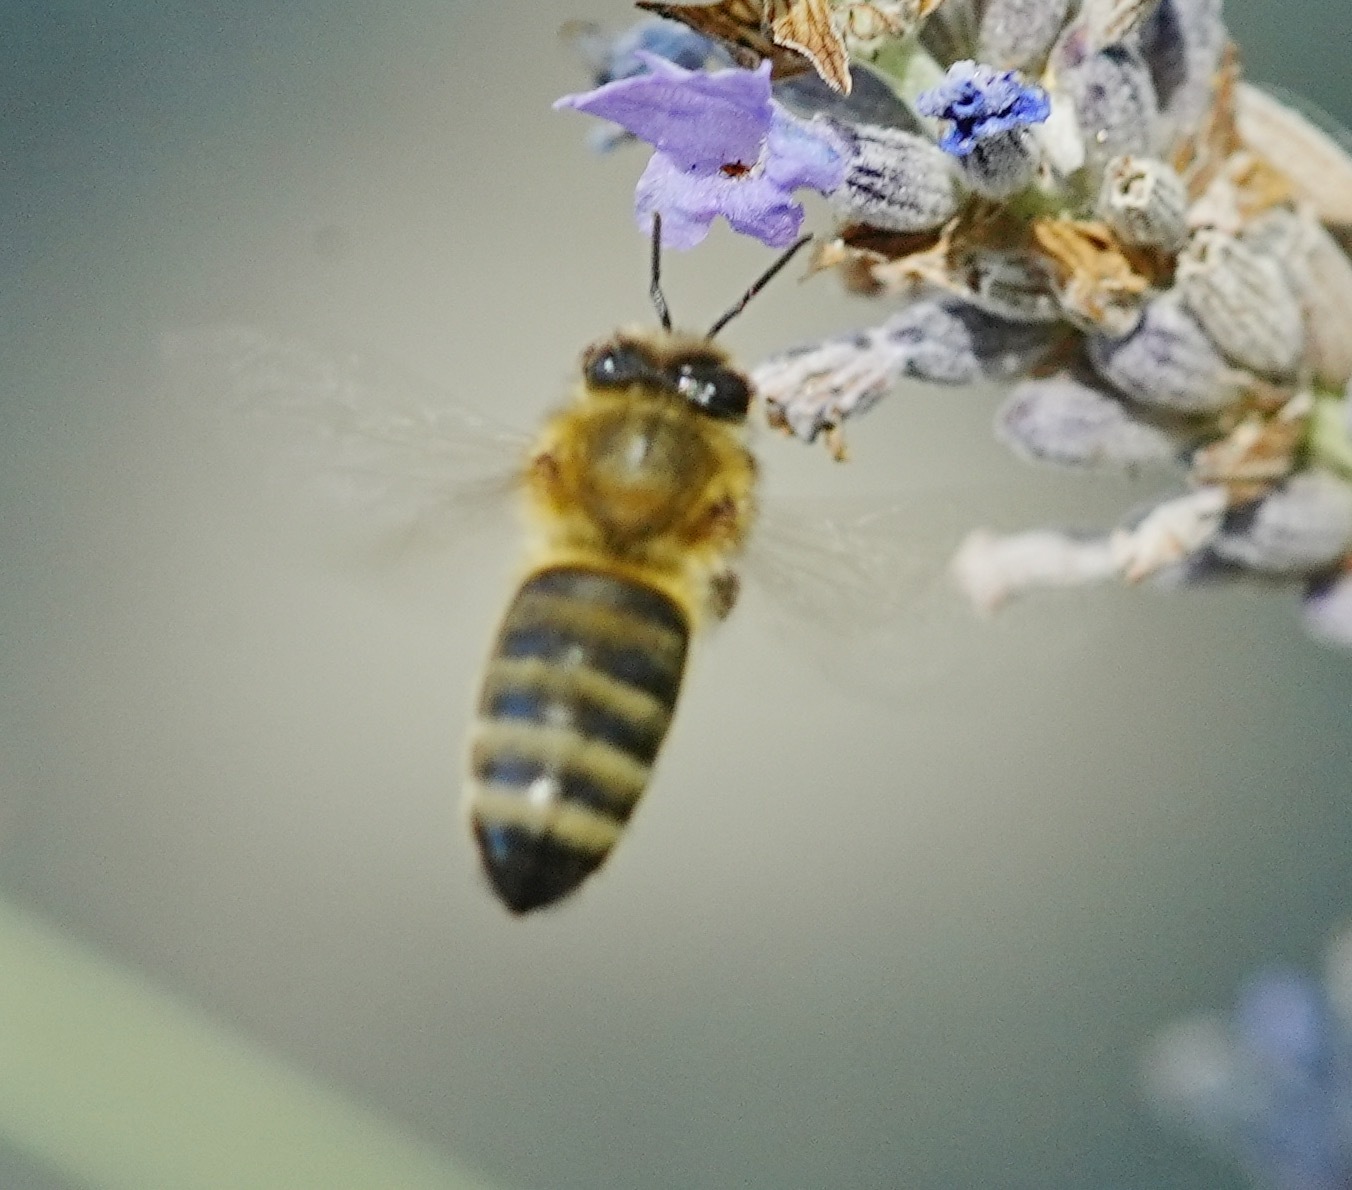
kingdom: Animalia
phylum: Arthropoda
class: Insecta
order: Hymenoptera
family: Apidae
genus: Apis
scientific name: Apis mellifera
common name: Honey bee
